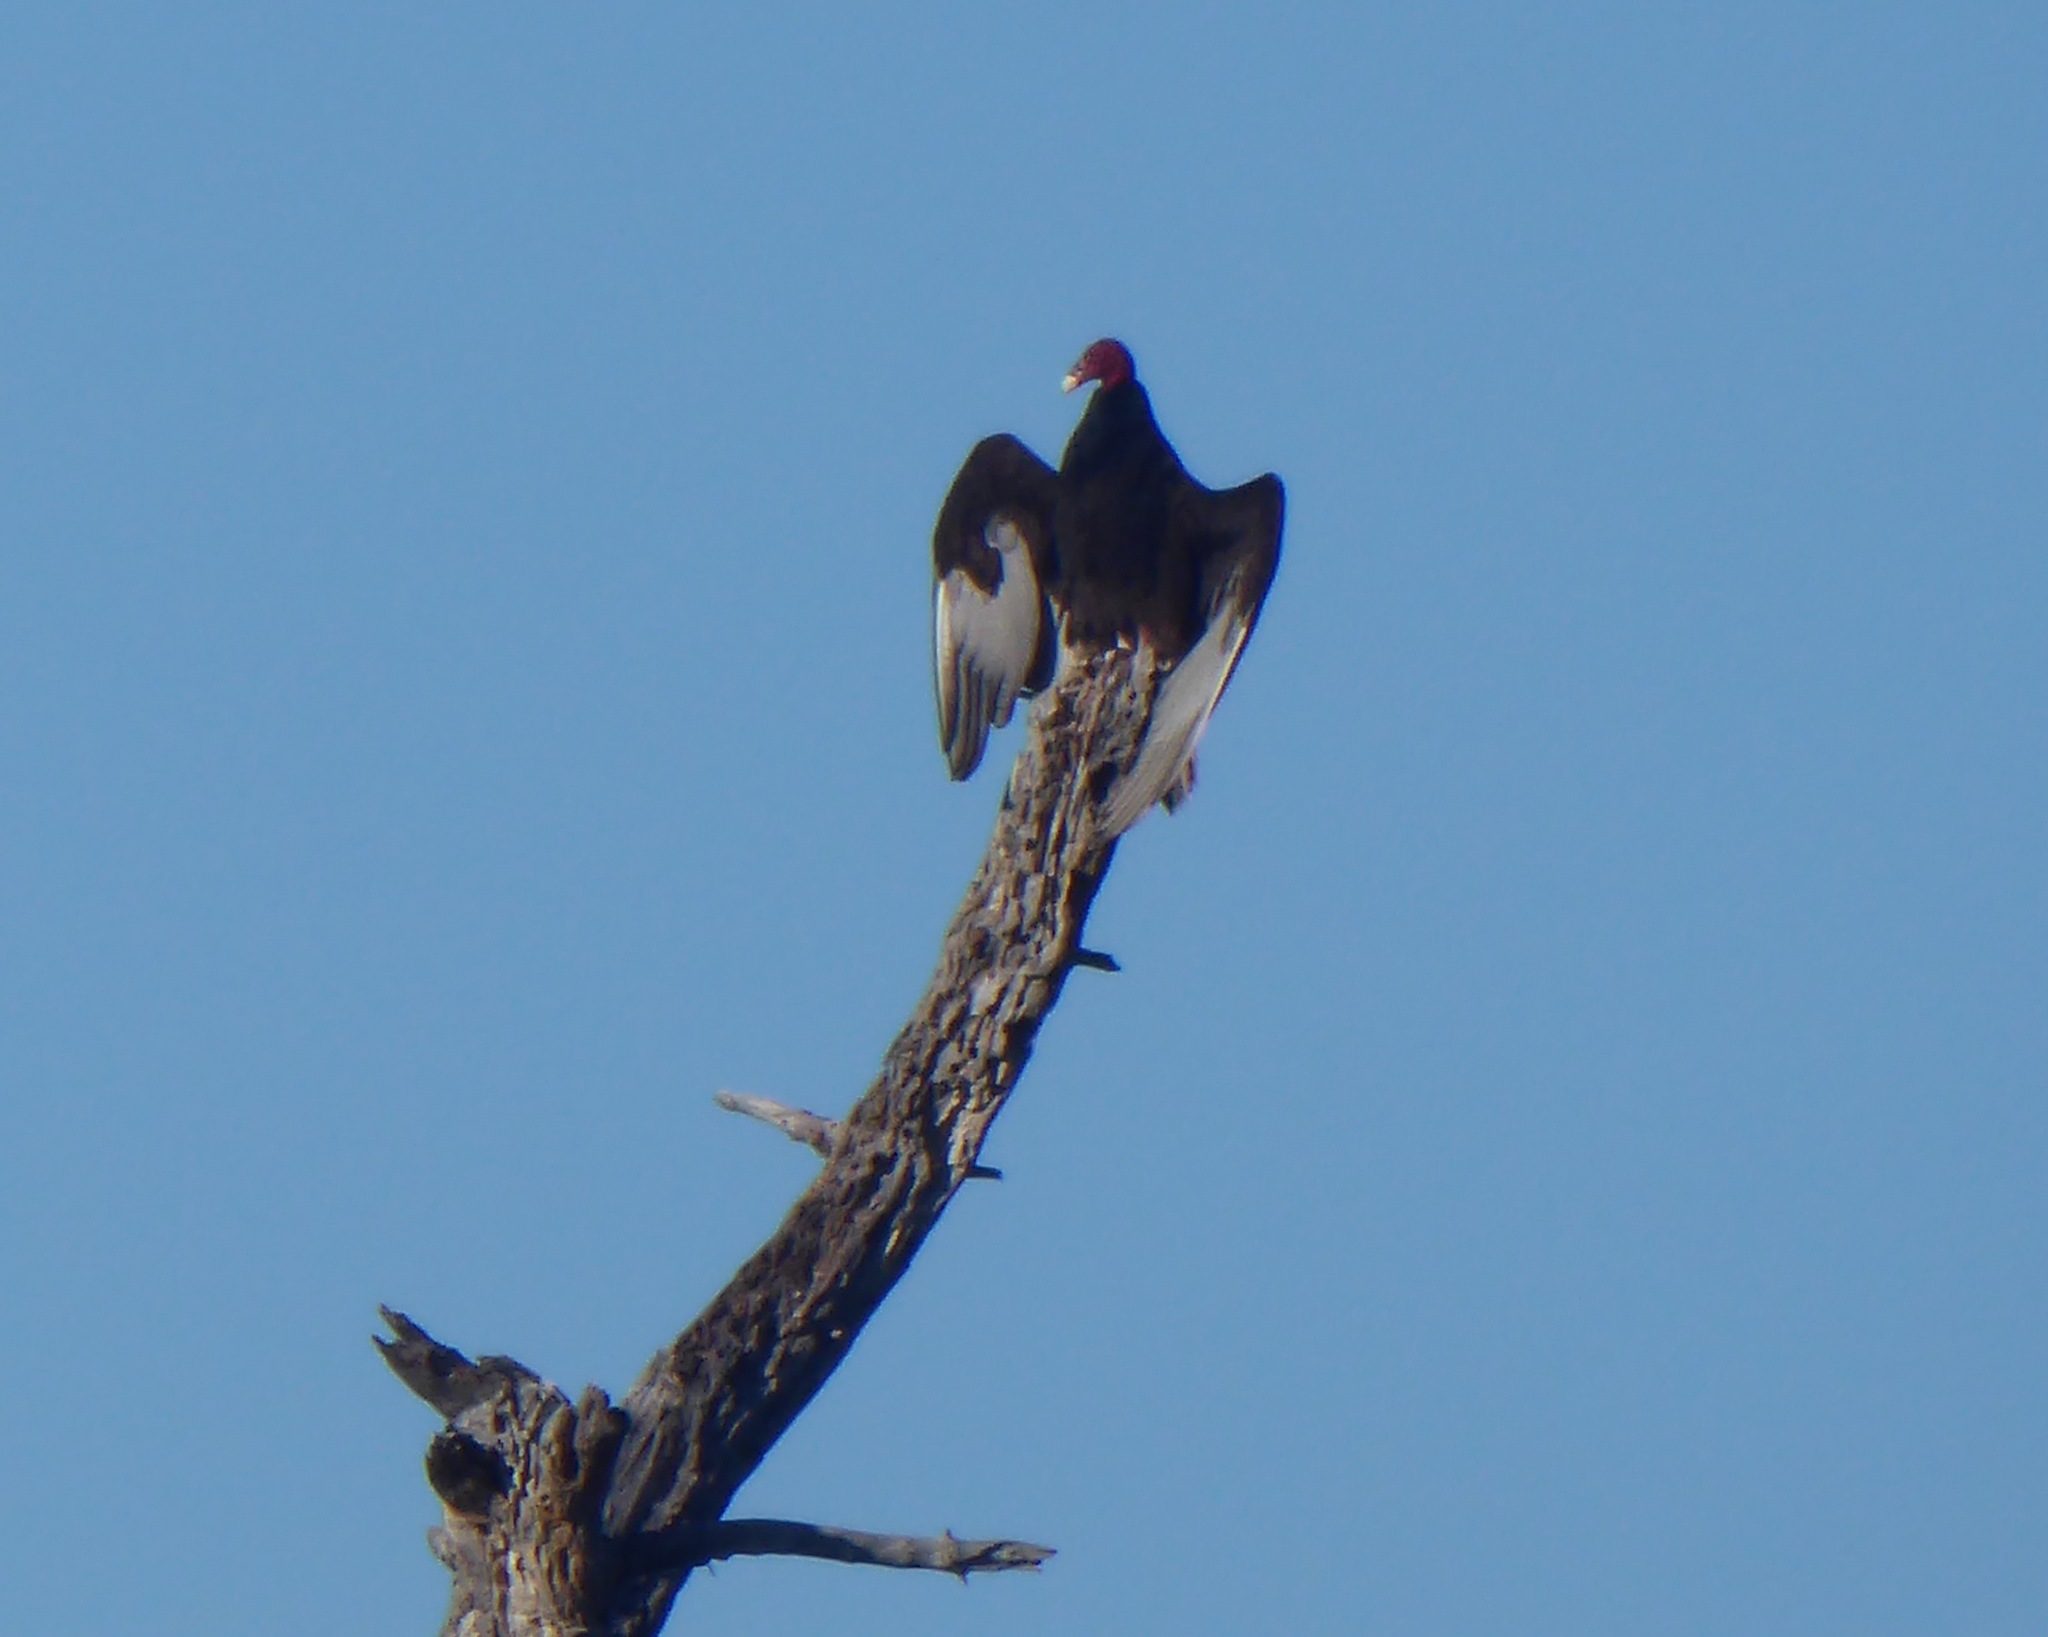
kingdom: Animalia
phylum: Chordata
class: Aves
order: Accipitriformes
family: Cathartidae
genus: Cathartes
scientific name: Cathartes aura
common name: Turkey vulture
